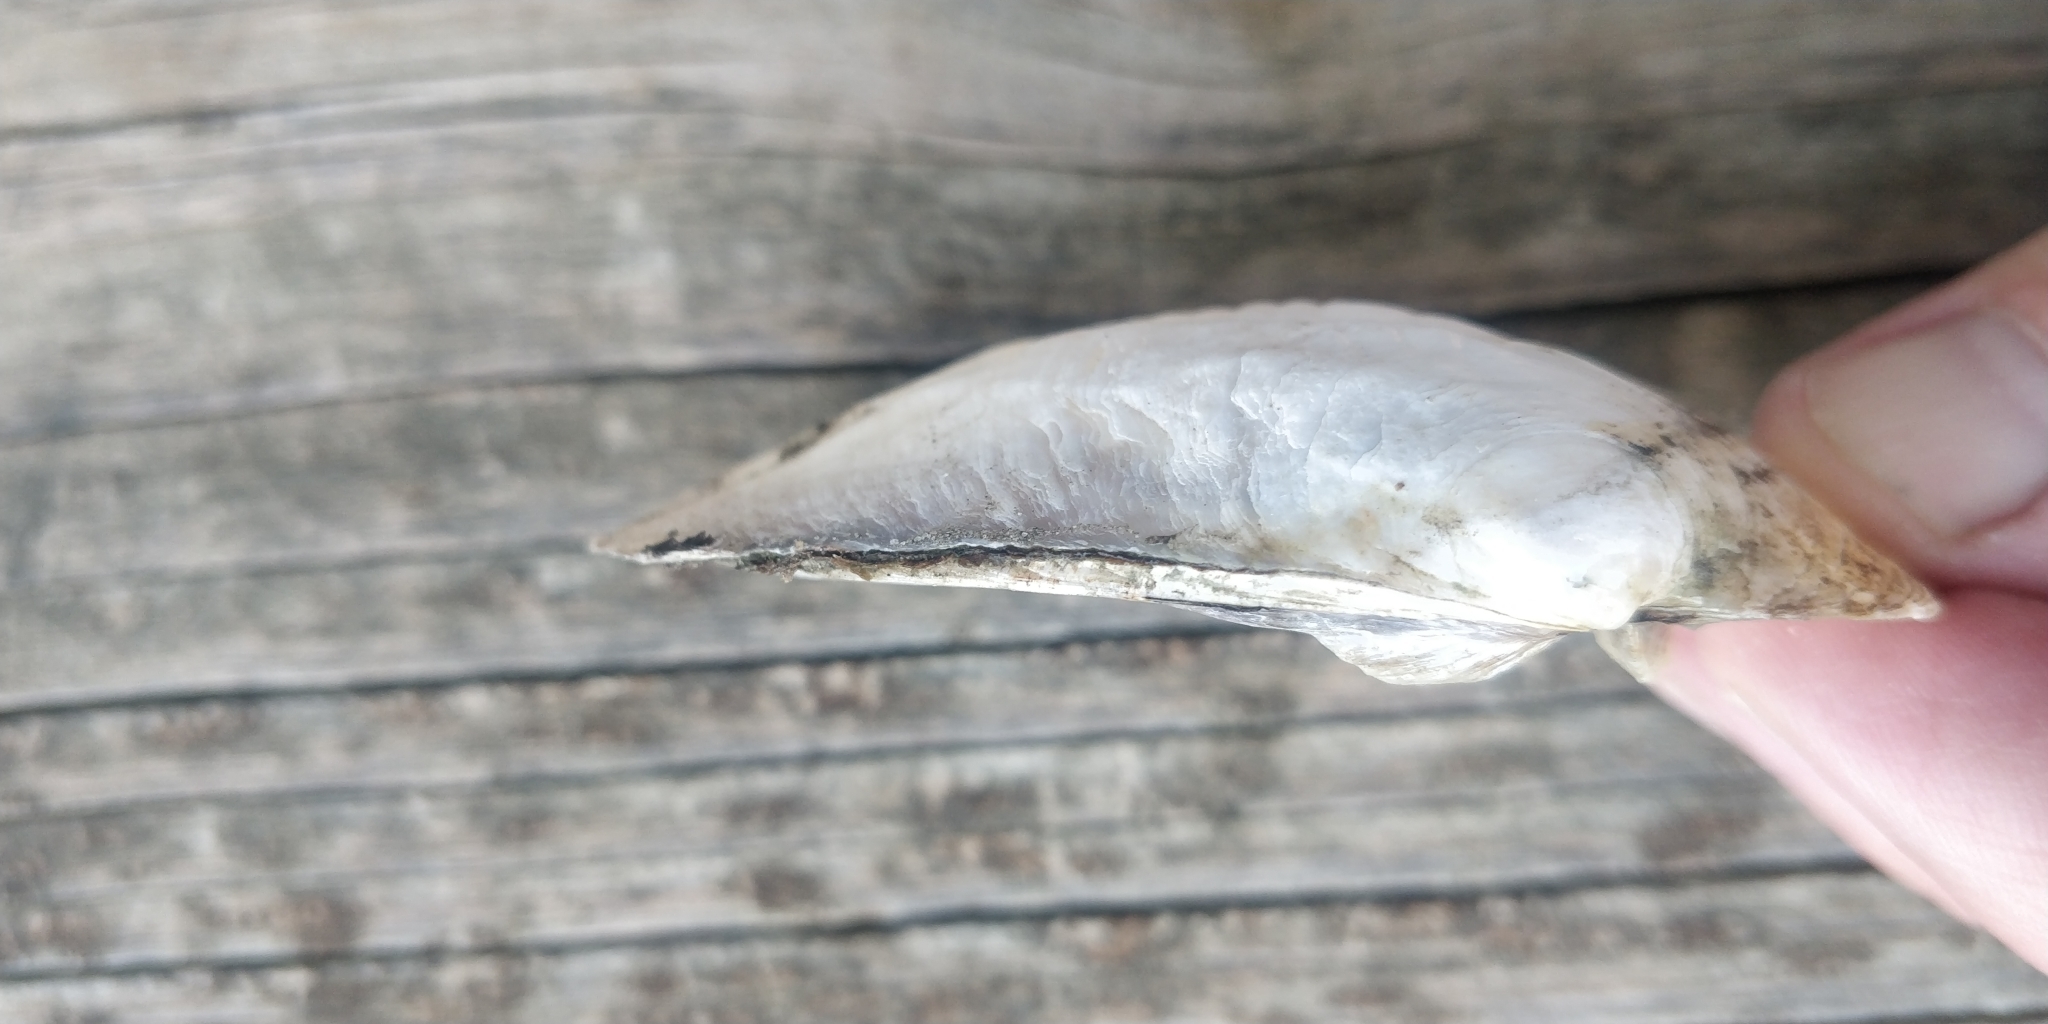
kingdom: Animalia
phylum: Mollusca
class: Bivalvia
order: Unionida
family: Unionidae
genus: Amblema
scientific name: Amblema plicata
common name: Threeridge
